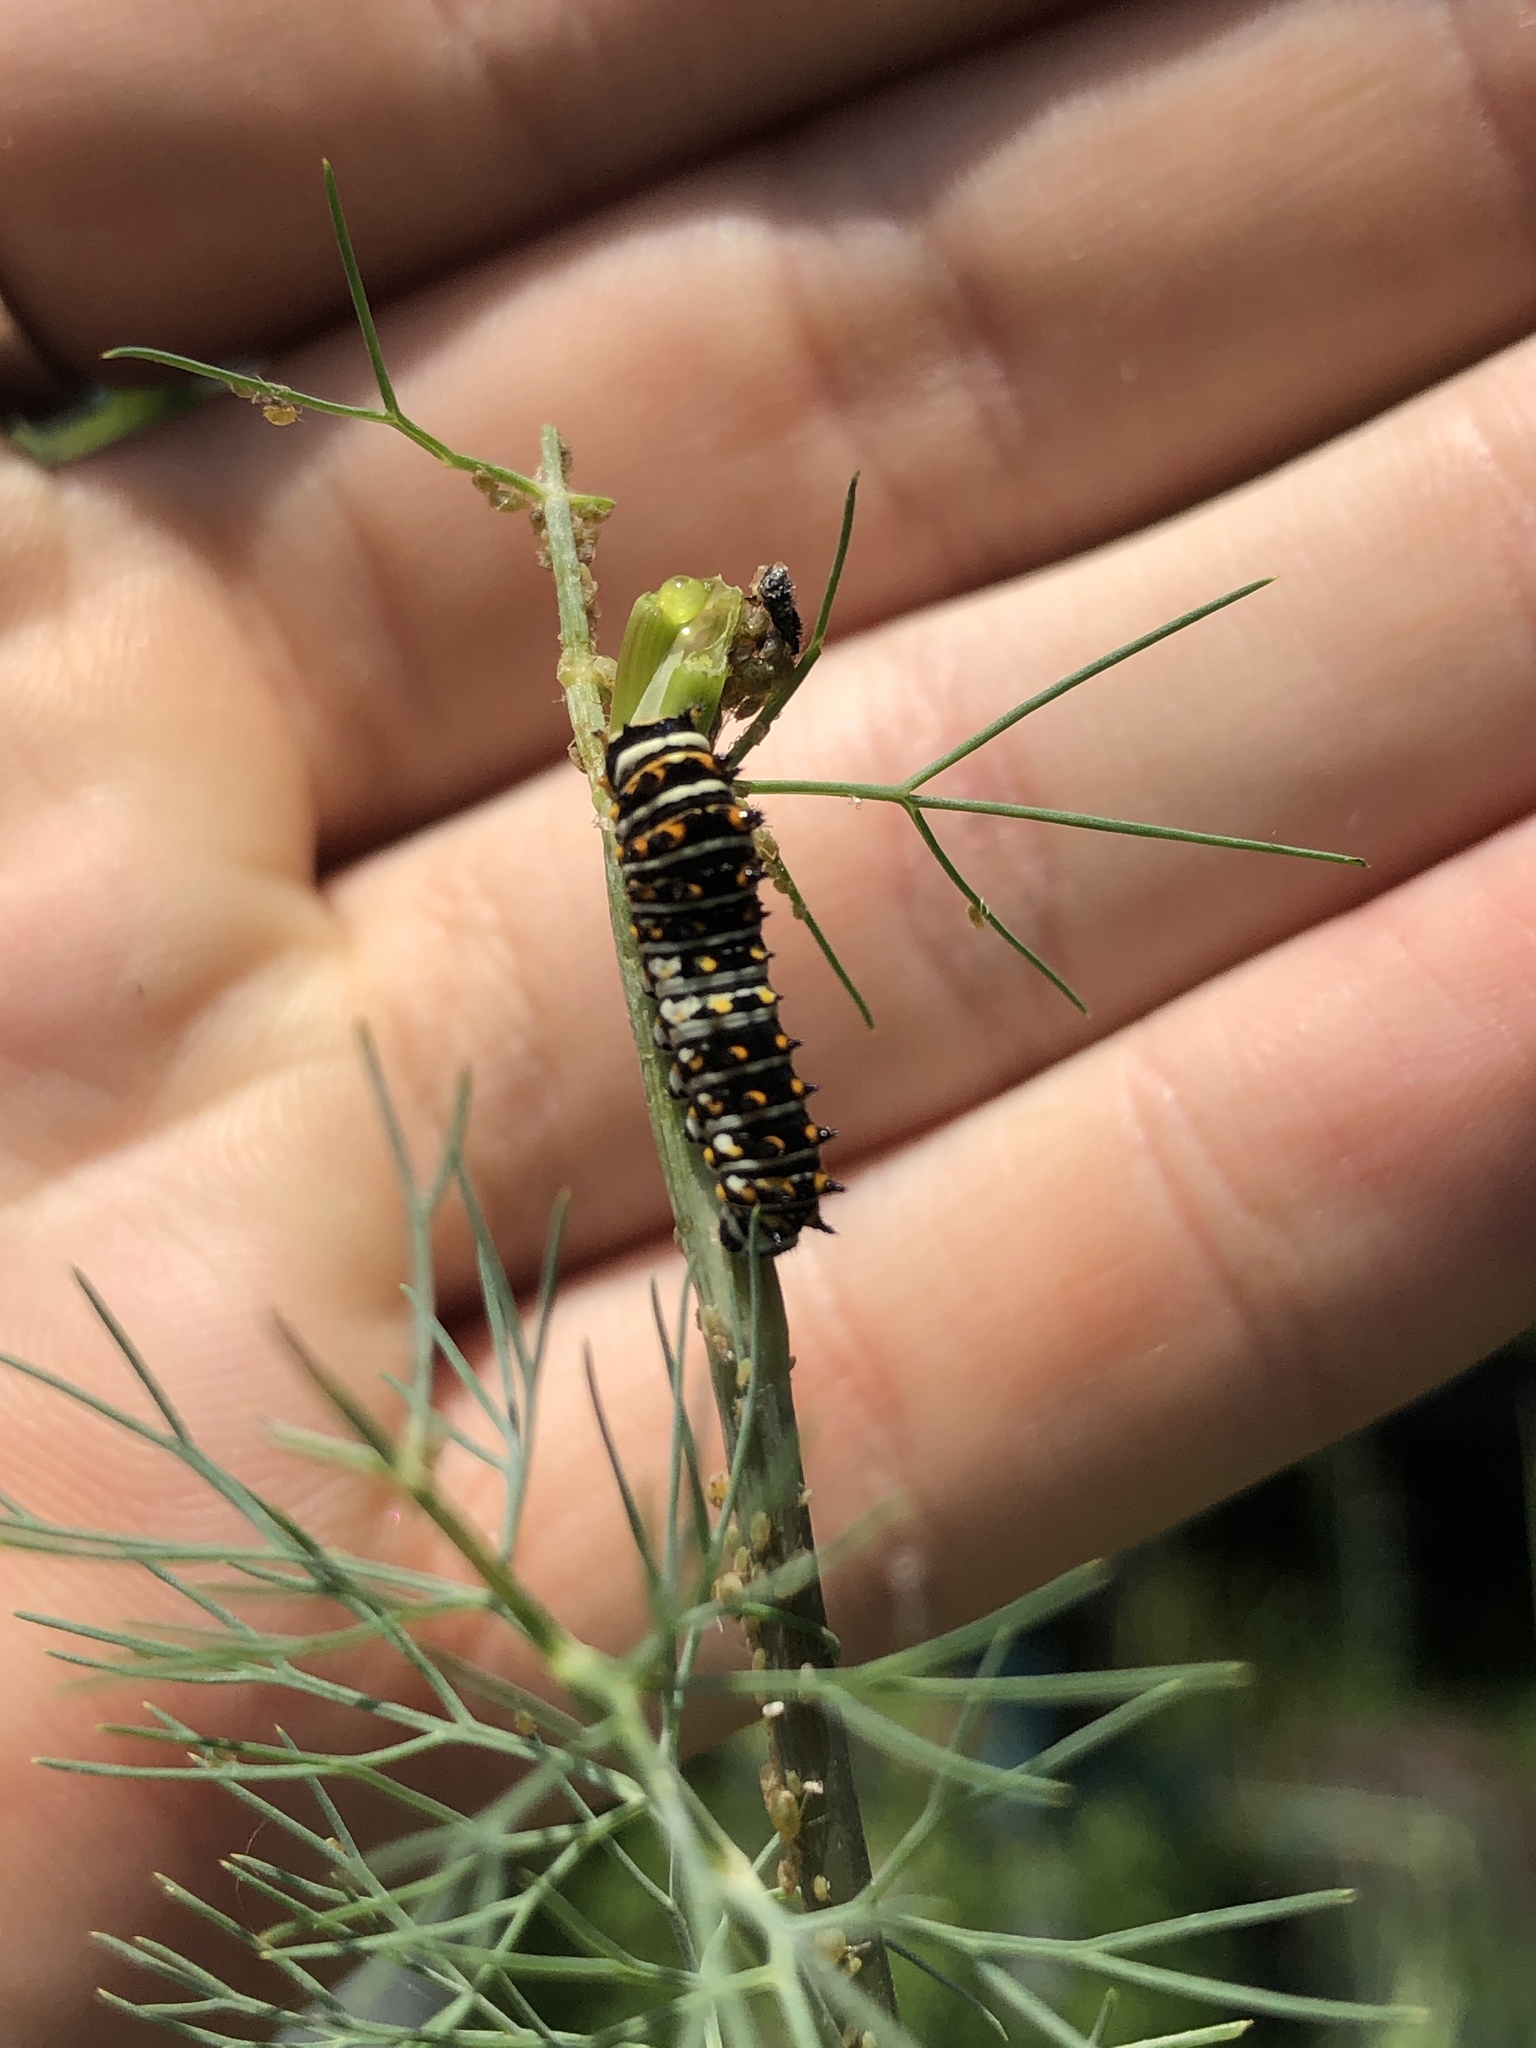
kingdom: Animalia
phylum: Arthropoda
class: Insecta
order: Lepidoptera
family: Papilionidae
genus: Papilio
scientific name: Papilio polyxenes
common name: Black swallowtail
